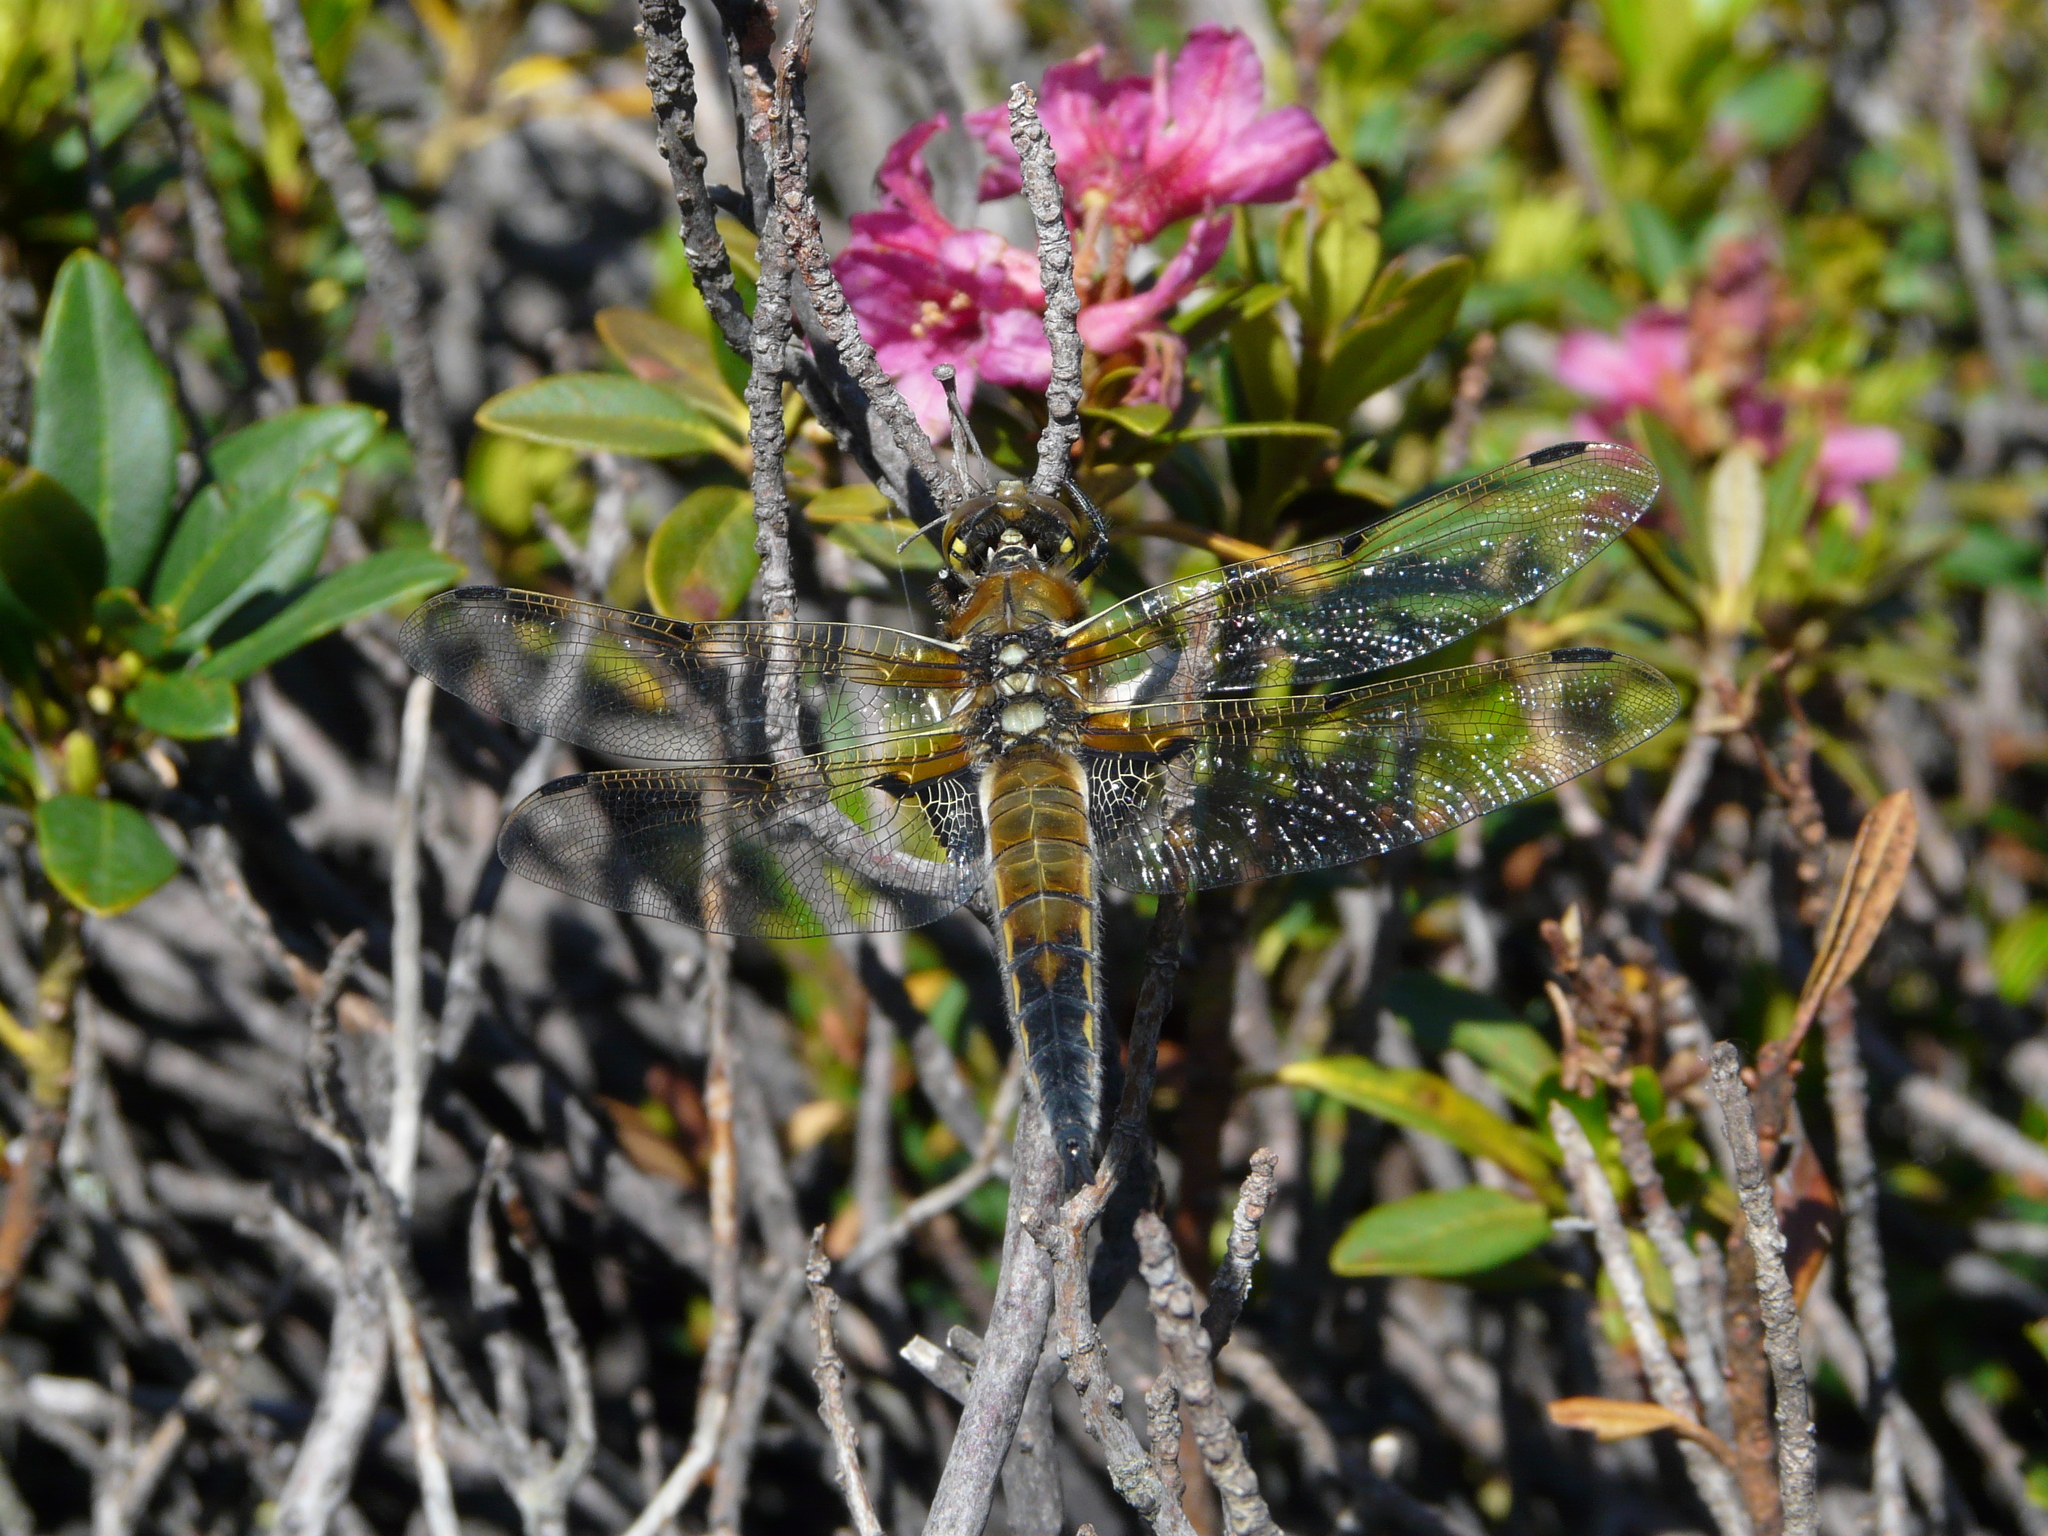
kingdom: Animalia
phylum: Arthropoda
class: Insecta
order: Odonata
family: Libellulidae
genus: Libellula
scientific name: Libellula quadrimaculata
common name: Four-spotted chaser
